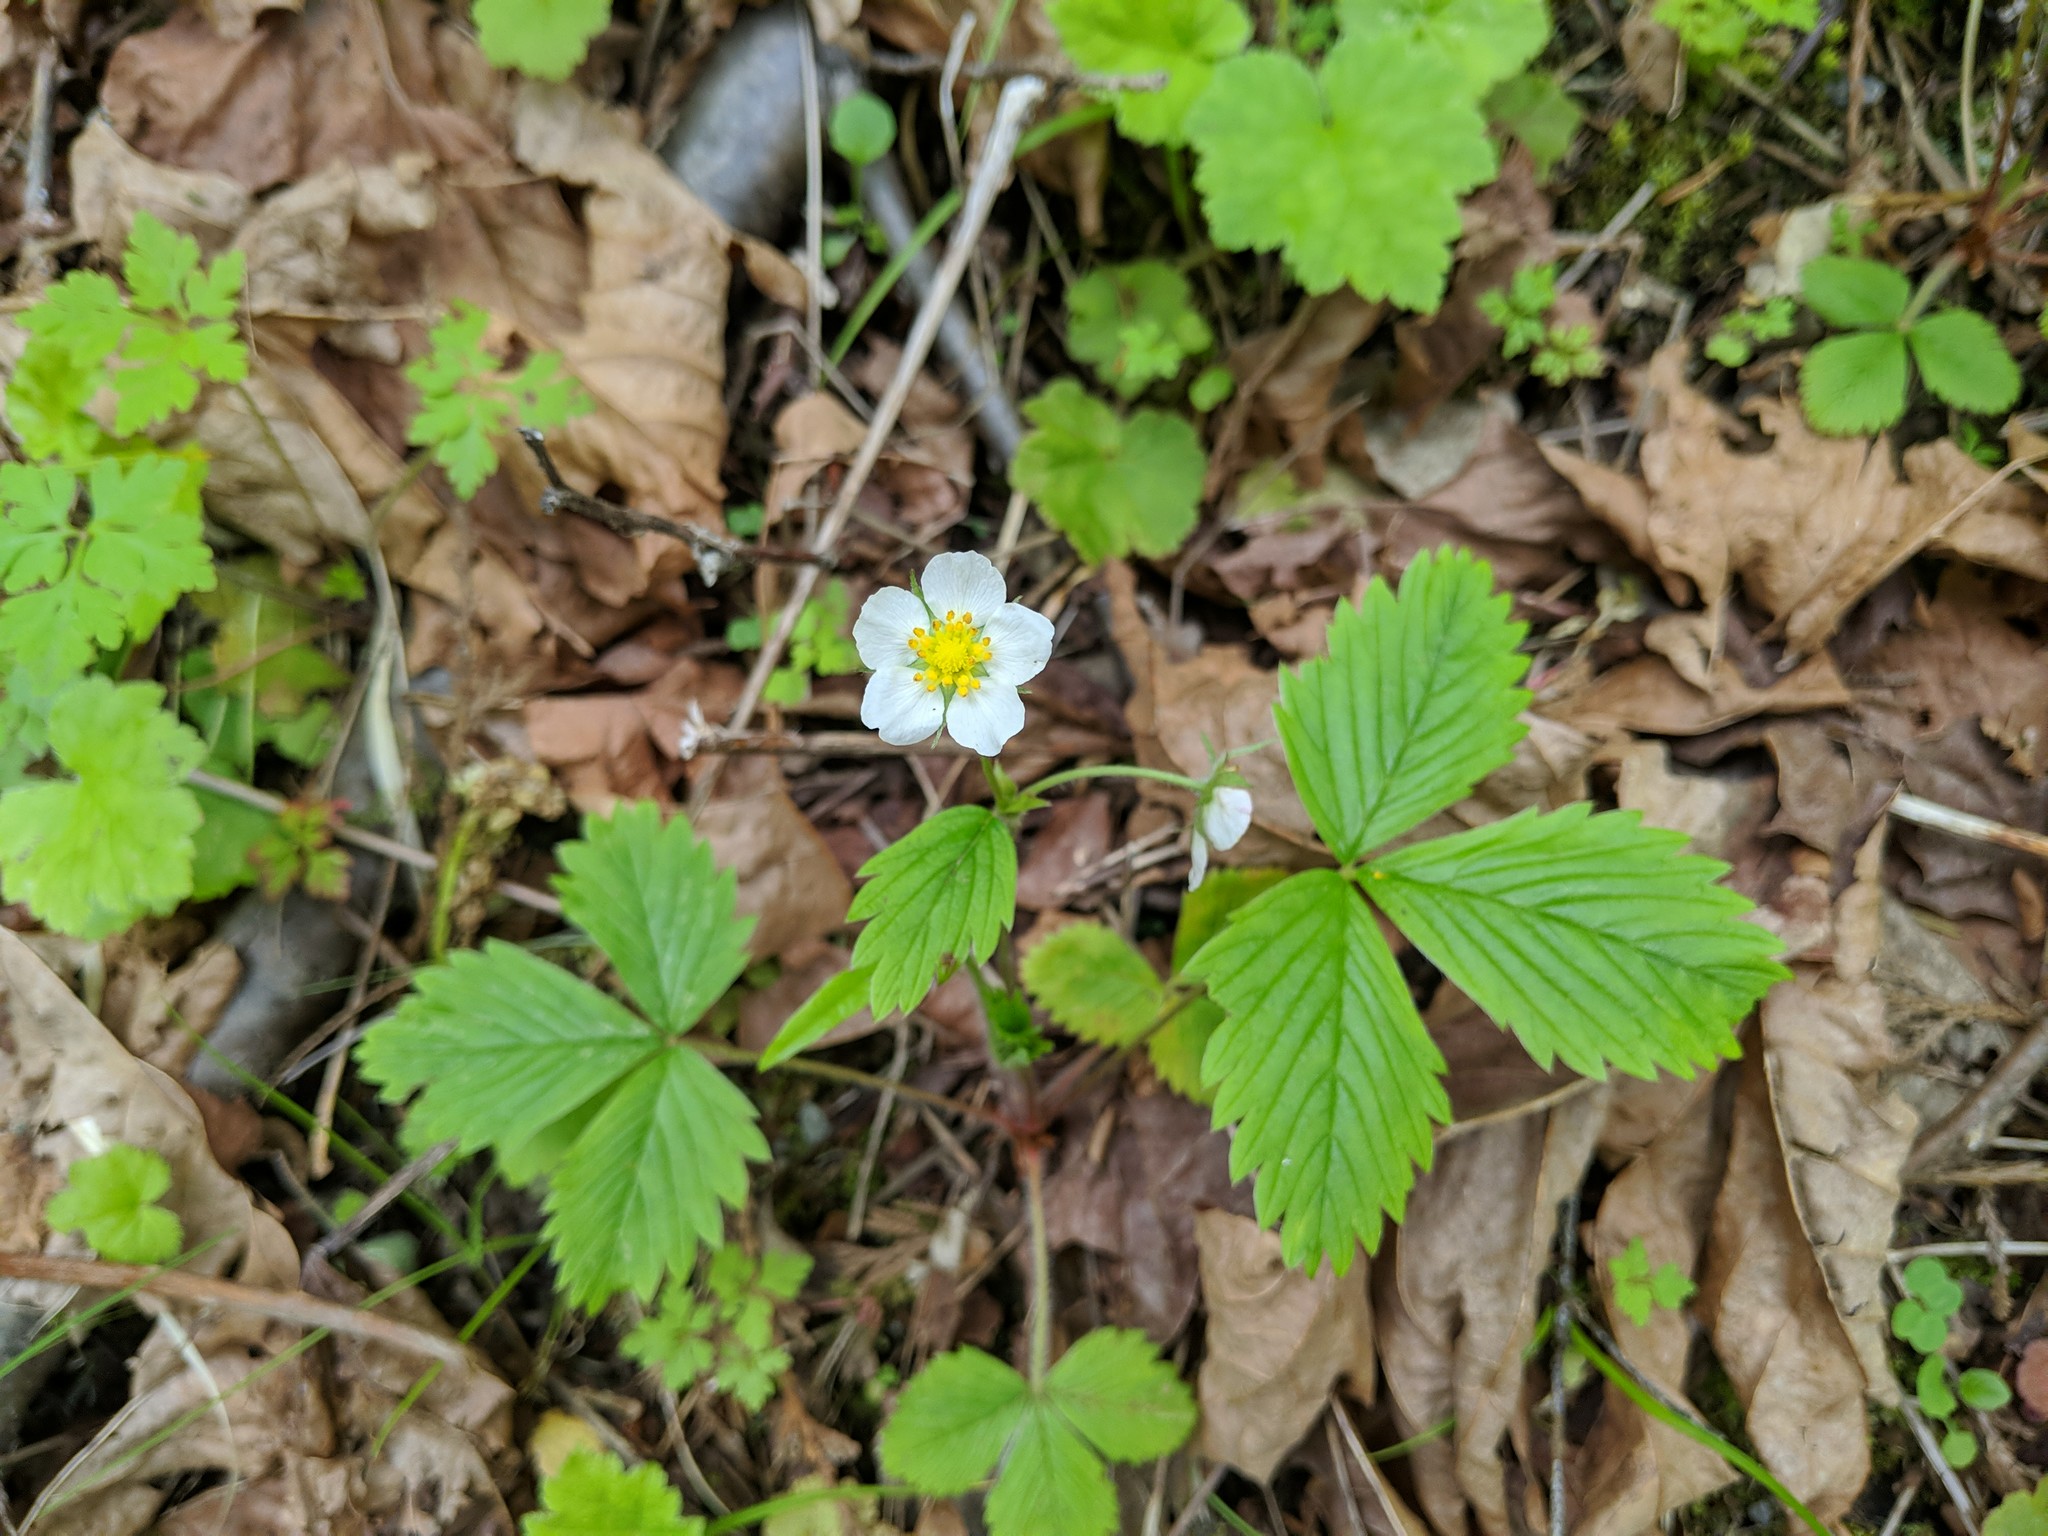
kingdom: Plantae
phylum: Tracheophyta
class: Magnoliopsida
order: Rosales
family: Rosaceae
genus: Fragaria
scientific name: Fragaria vesca
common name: Wild strawberry
